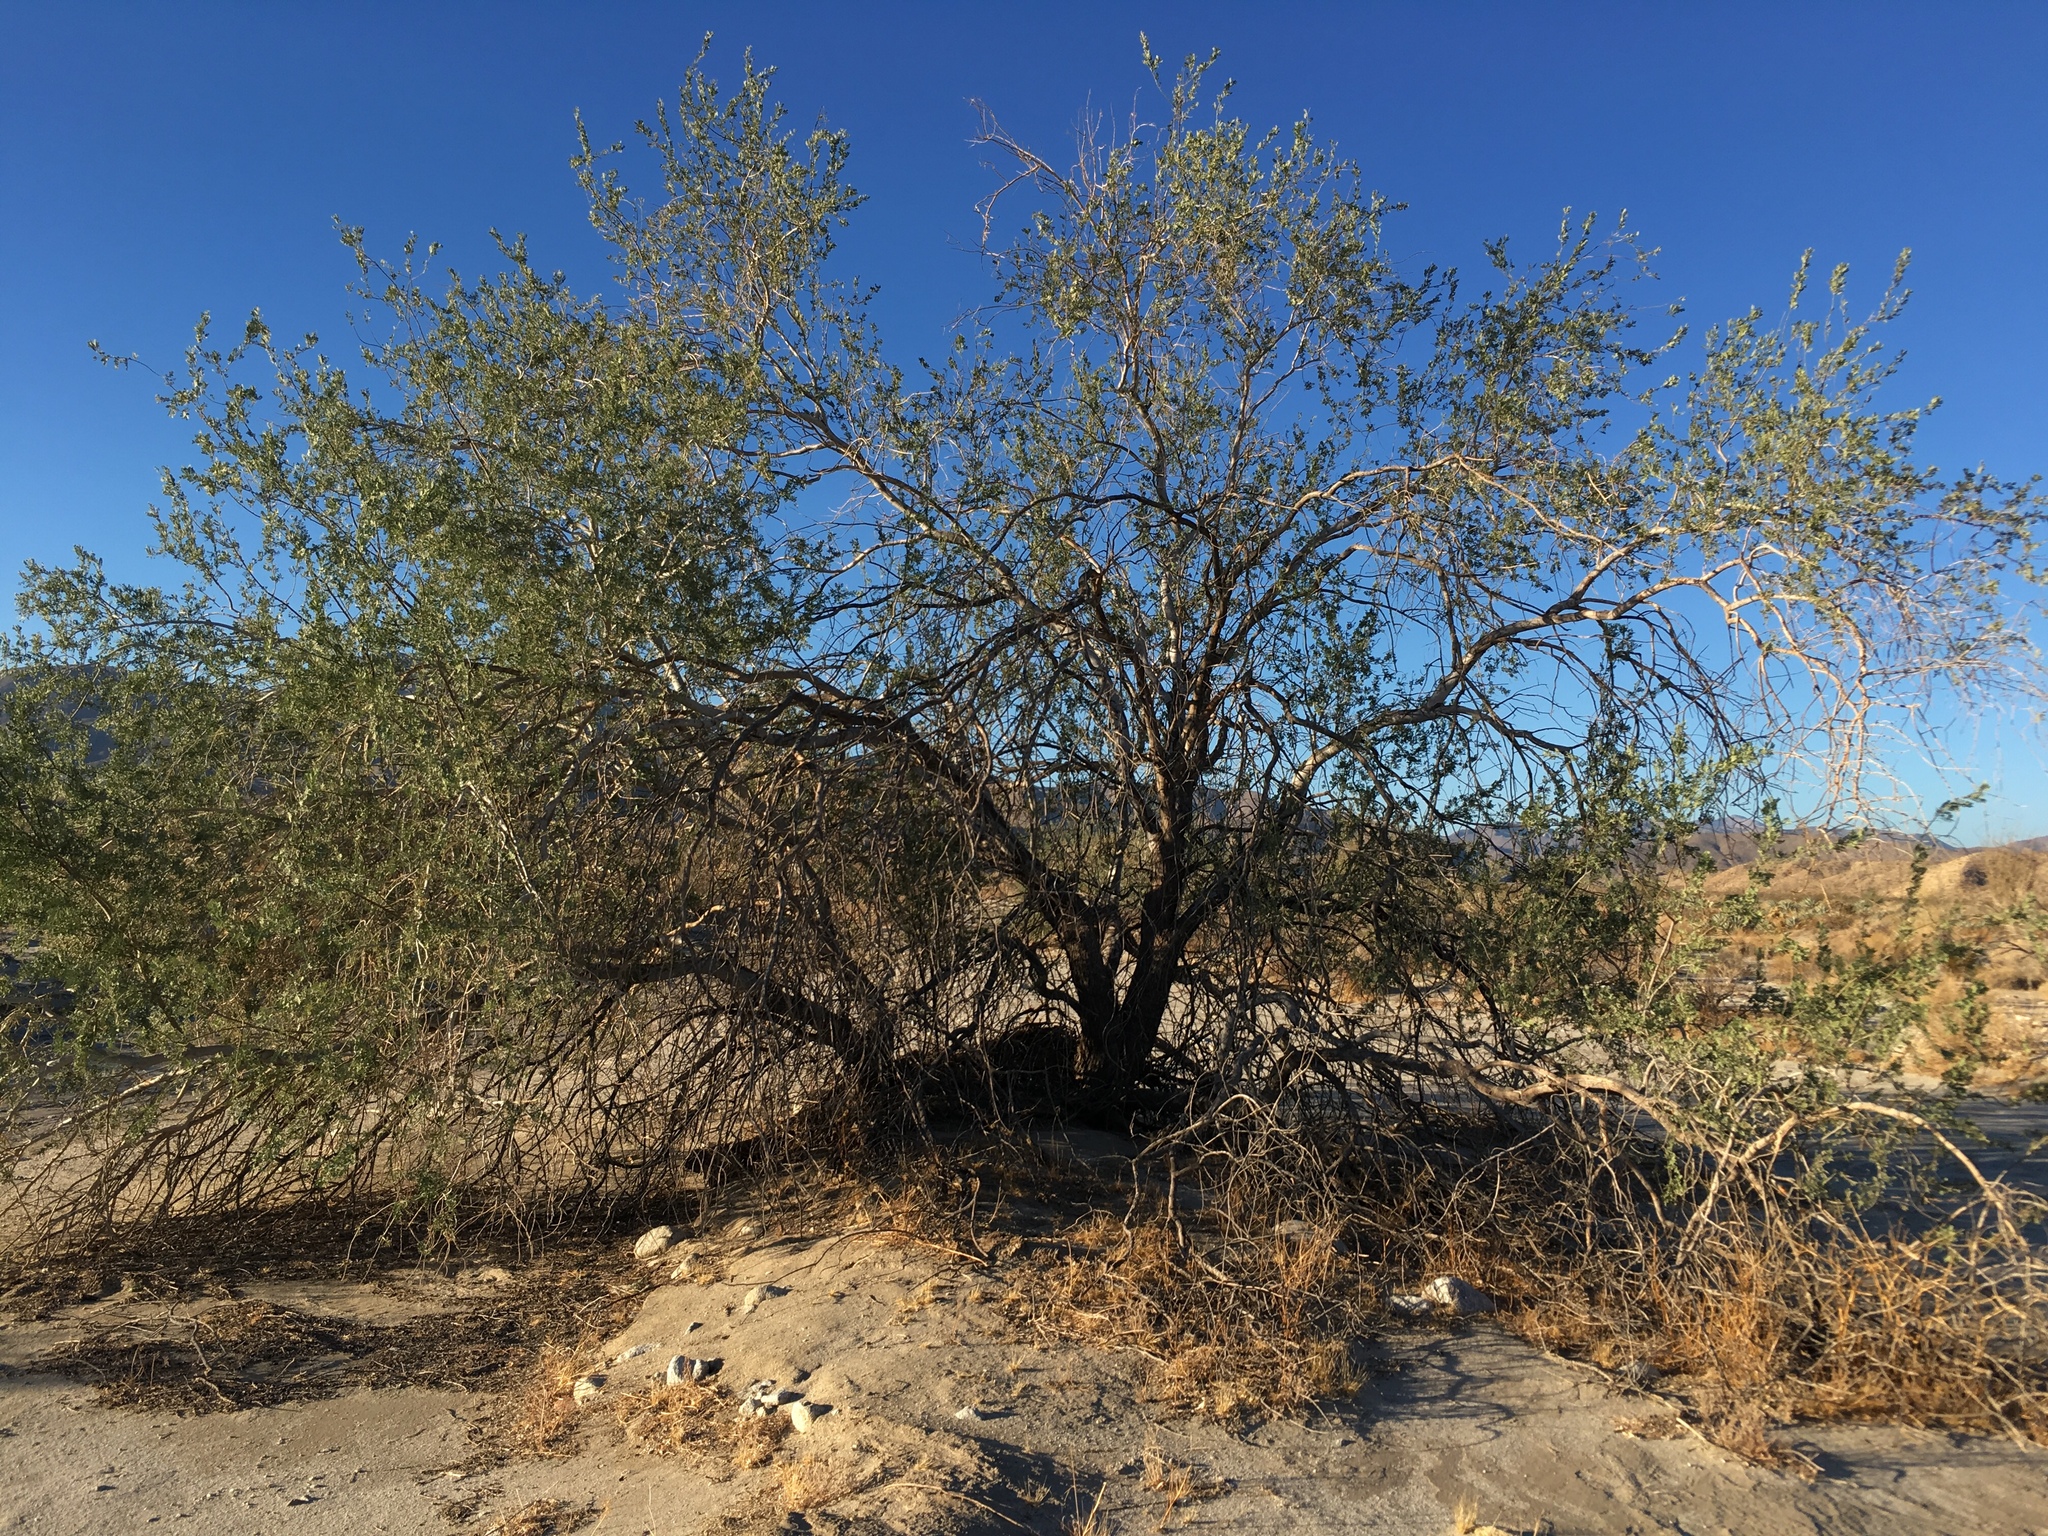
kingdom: Plantae
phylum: Tracheophyta
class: Magnoliopsida
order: Fabales
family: Fabaceae
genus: Olneya
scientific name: Olneya tesota
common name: Desert ironwood
